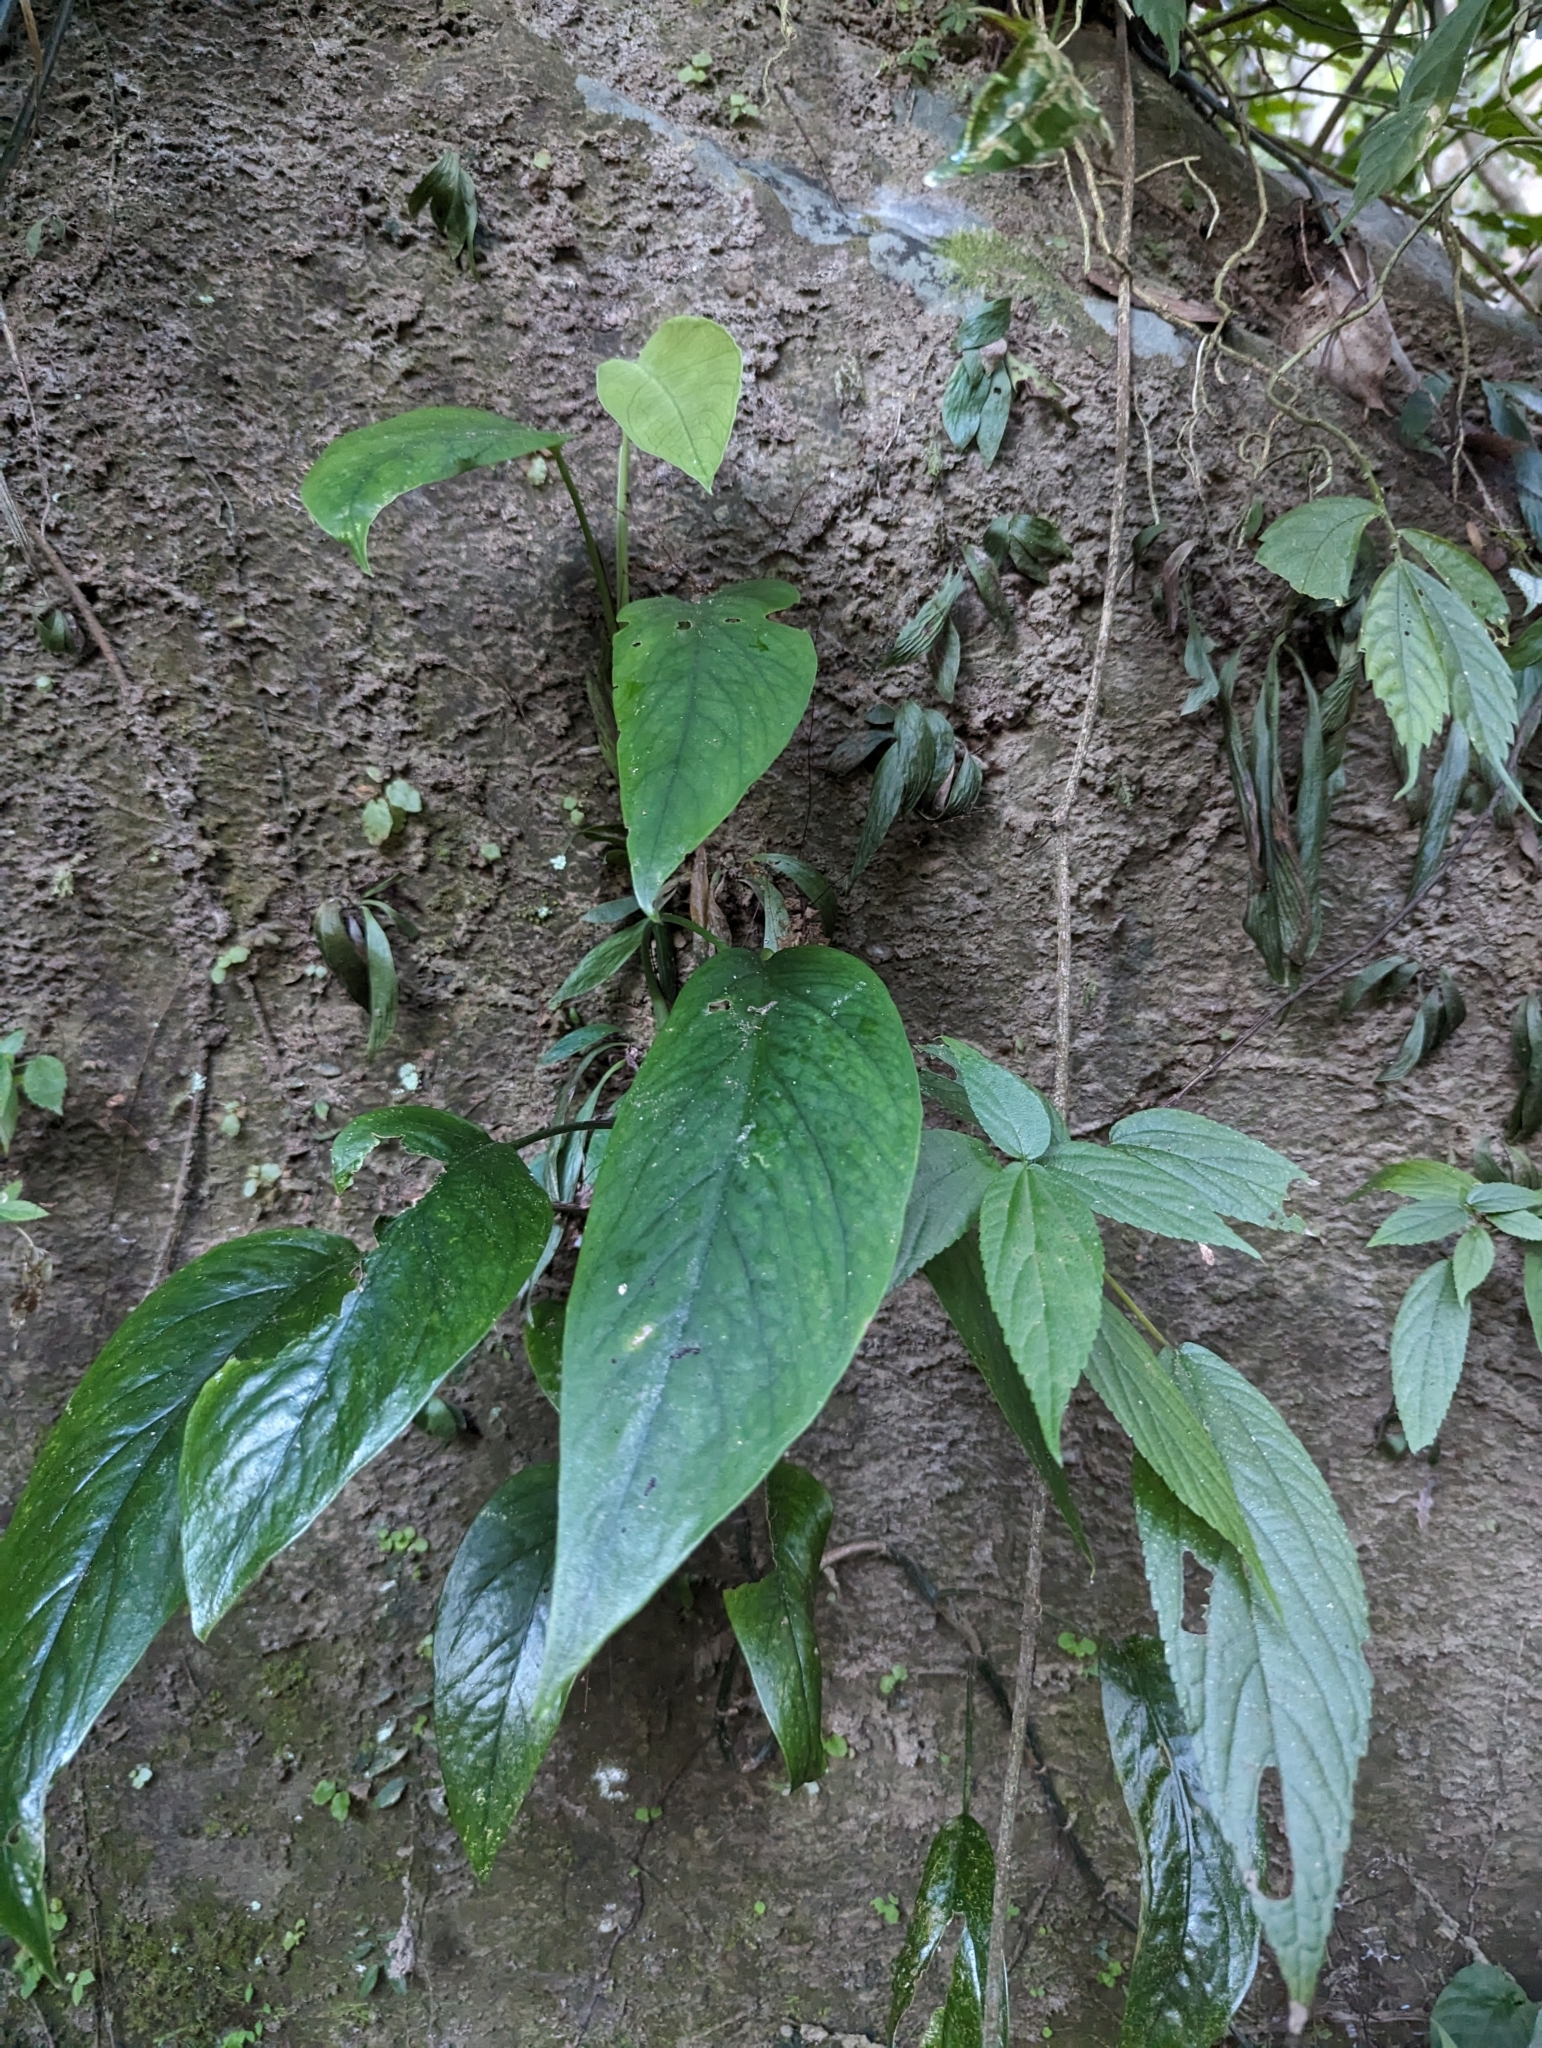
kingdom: Plantae
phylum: Tracheophyta
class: Liliopsida
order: Alismatales
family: Araceae
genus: Epipremnum
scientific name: Epipremnum pinnatum
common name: Centipede tongavine
